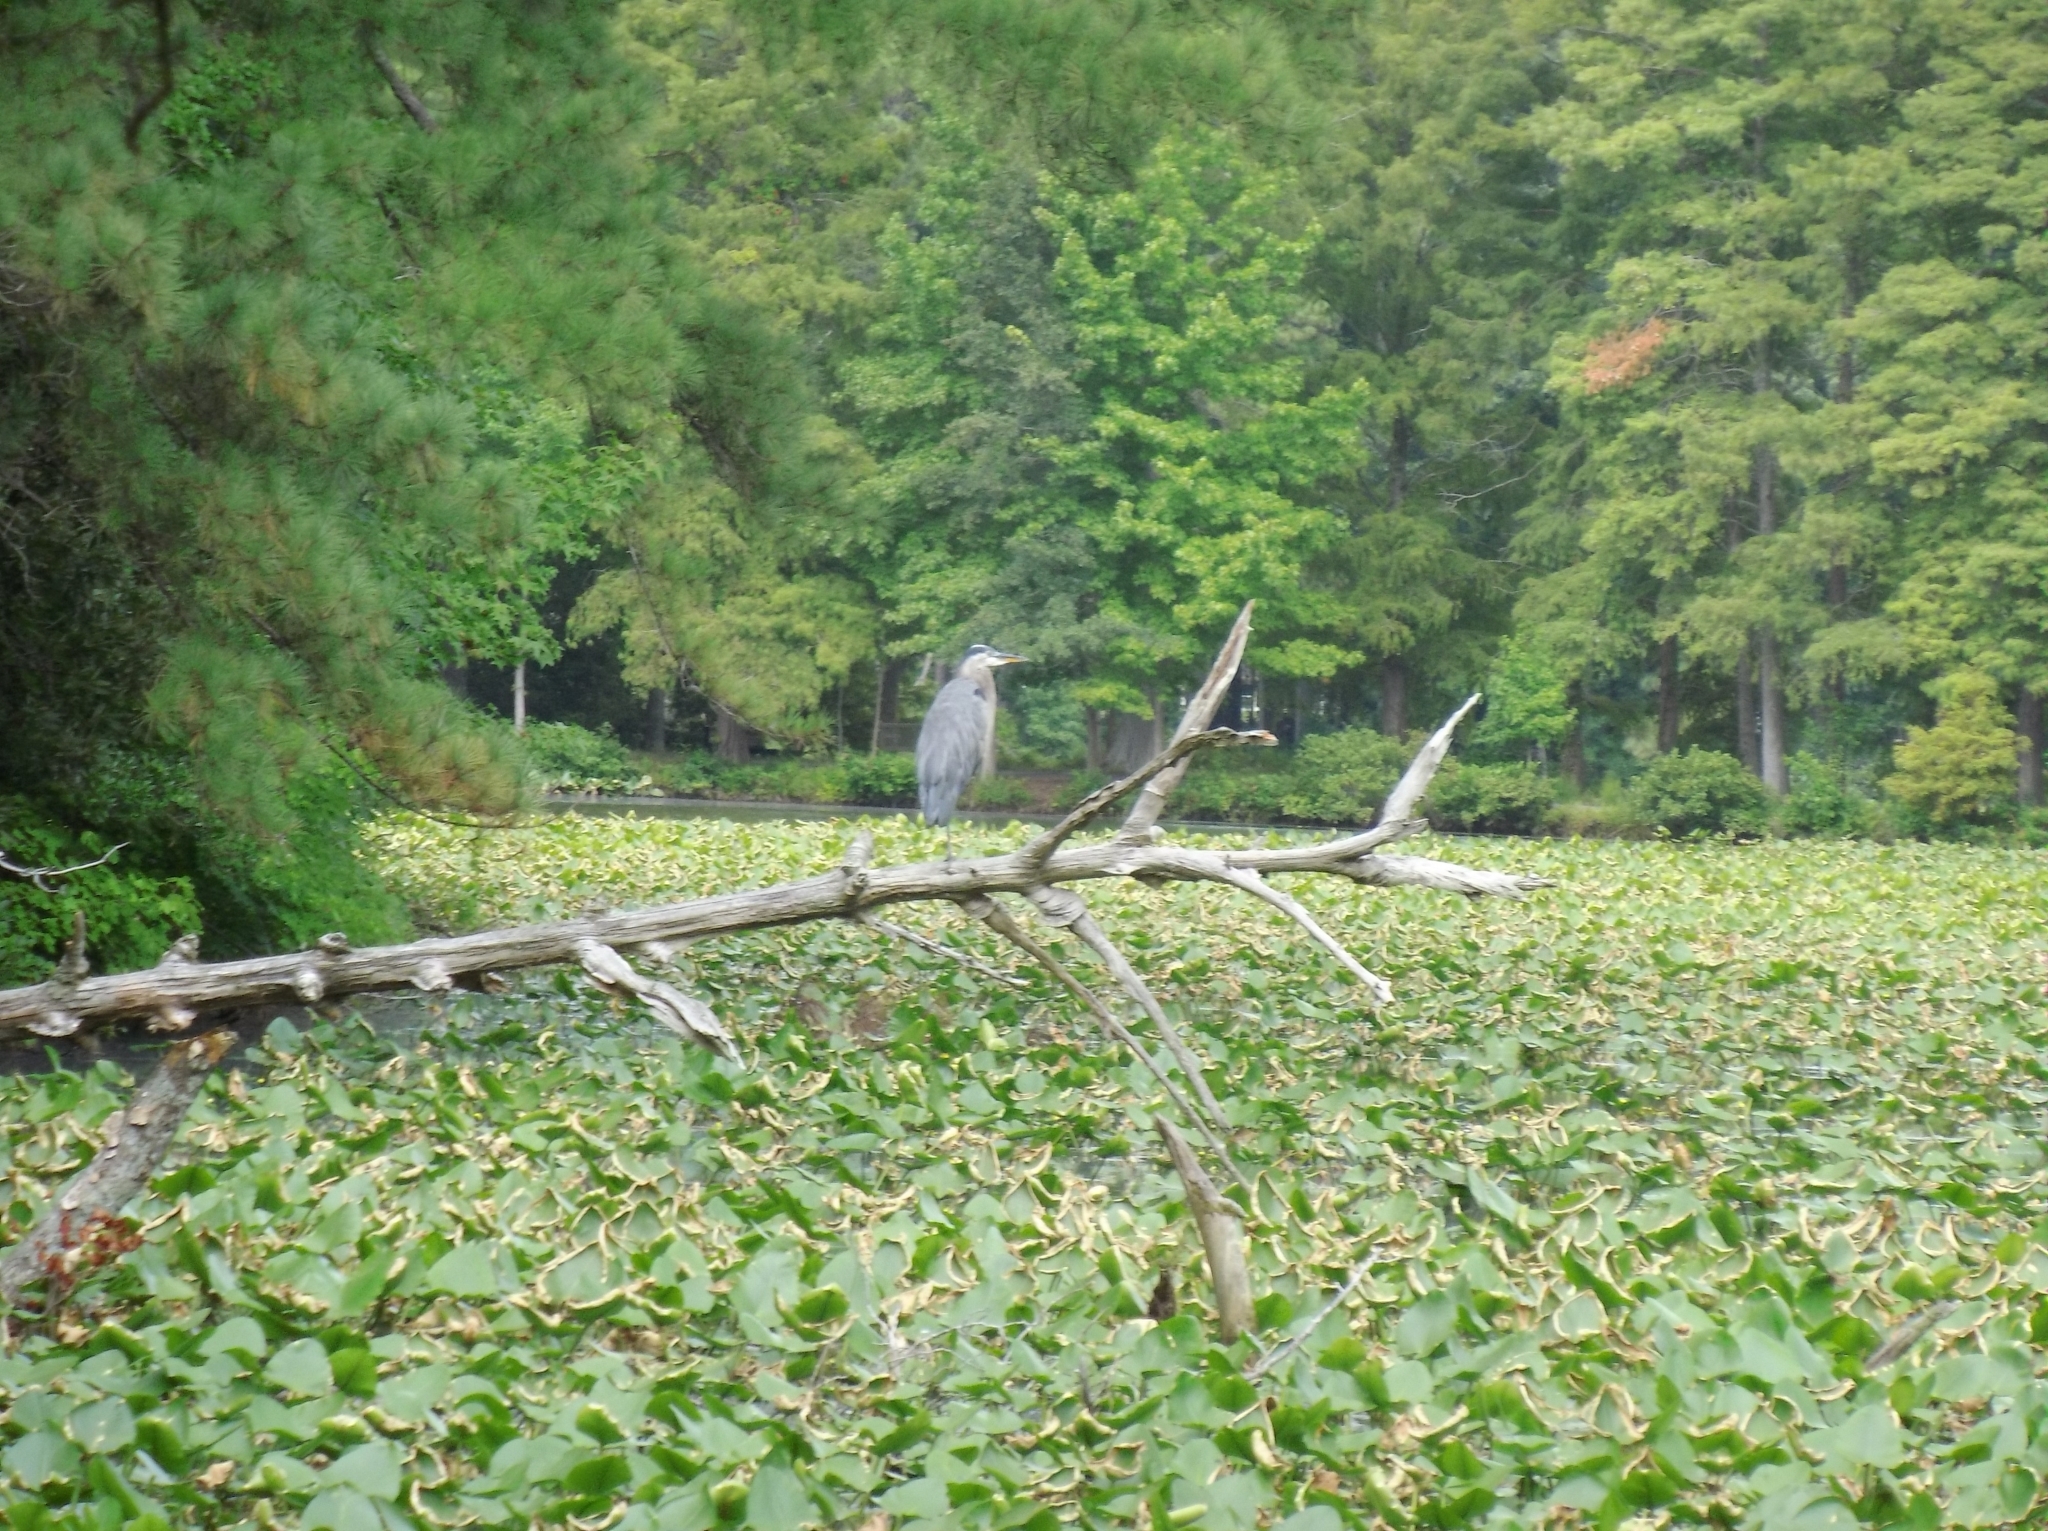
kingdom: Animalia
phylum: Chordata
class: Aves
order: Pelecaniformes
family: Ardeidae
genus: Ardea
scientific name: Ardea herodias
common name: Great blue heron
